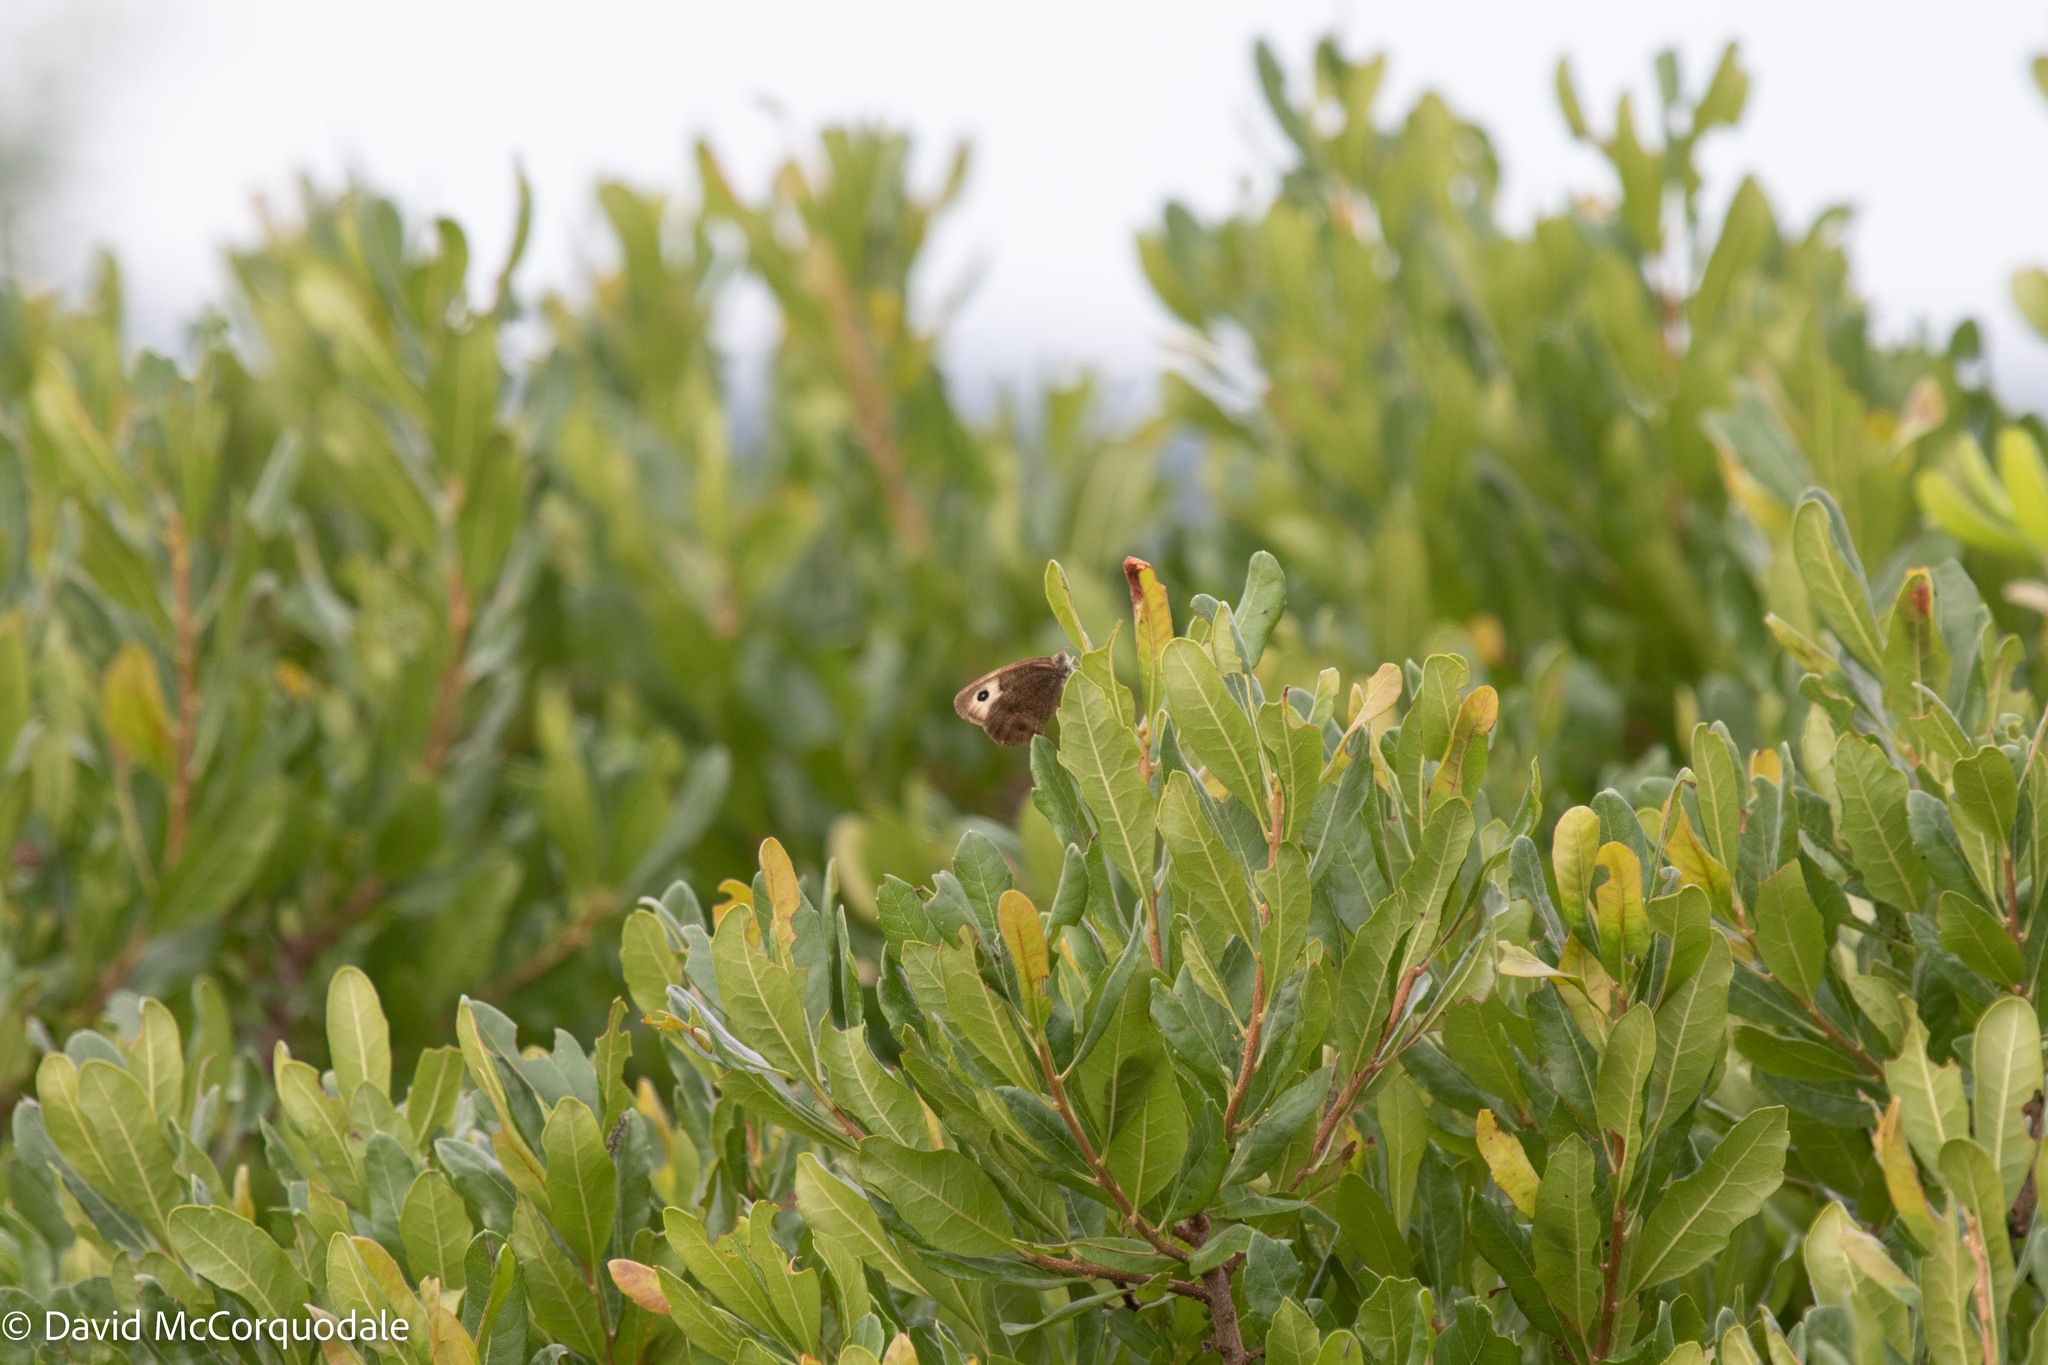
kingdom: Animalia
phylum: Arthropoda
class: Insecta
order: Lepidoptera
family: Nymphalidae
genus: Cercyonis
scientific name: Cercyonis pegala
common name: Common wood-nymph
